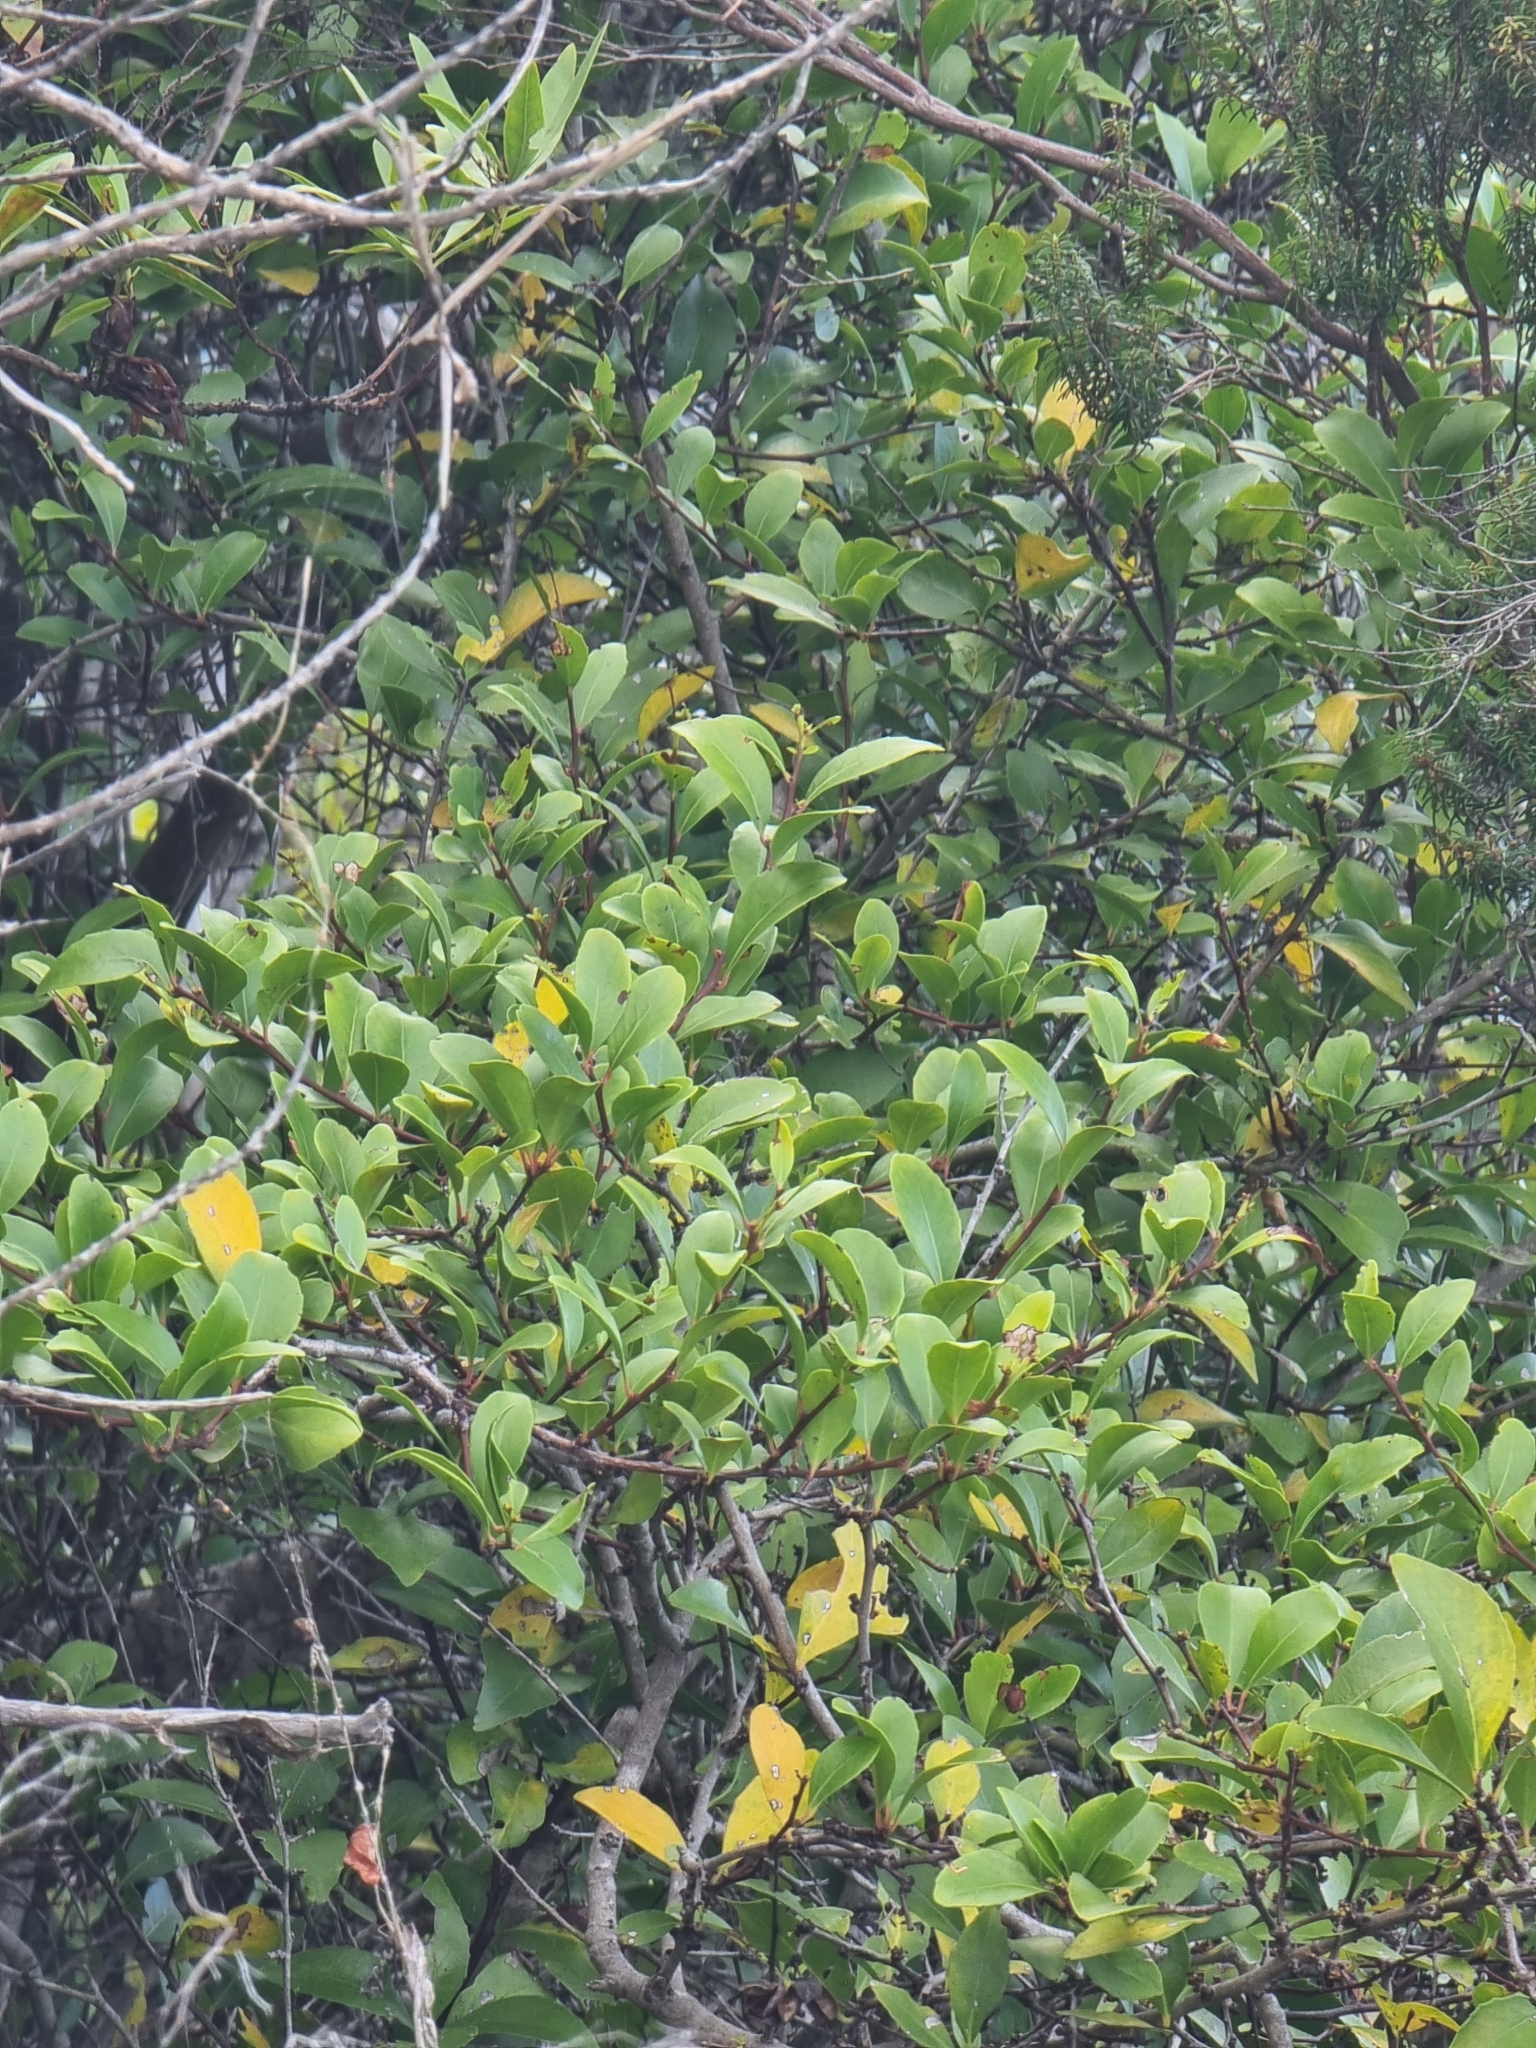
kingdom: Plantae
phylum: Tracheophyta
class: Magnoliopsida
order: Celastrales
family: Celastraceae
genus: Gymnosporia
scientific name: Gymnosporia dryandri
